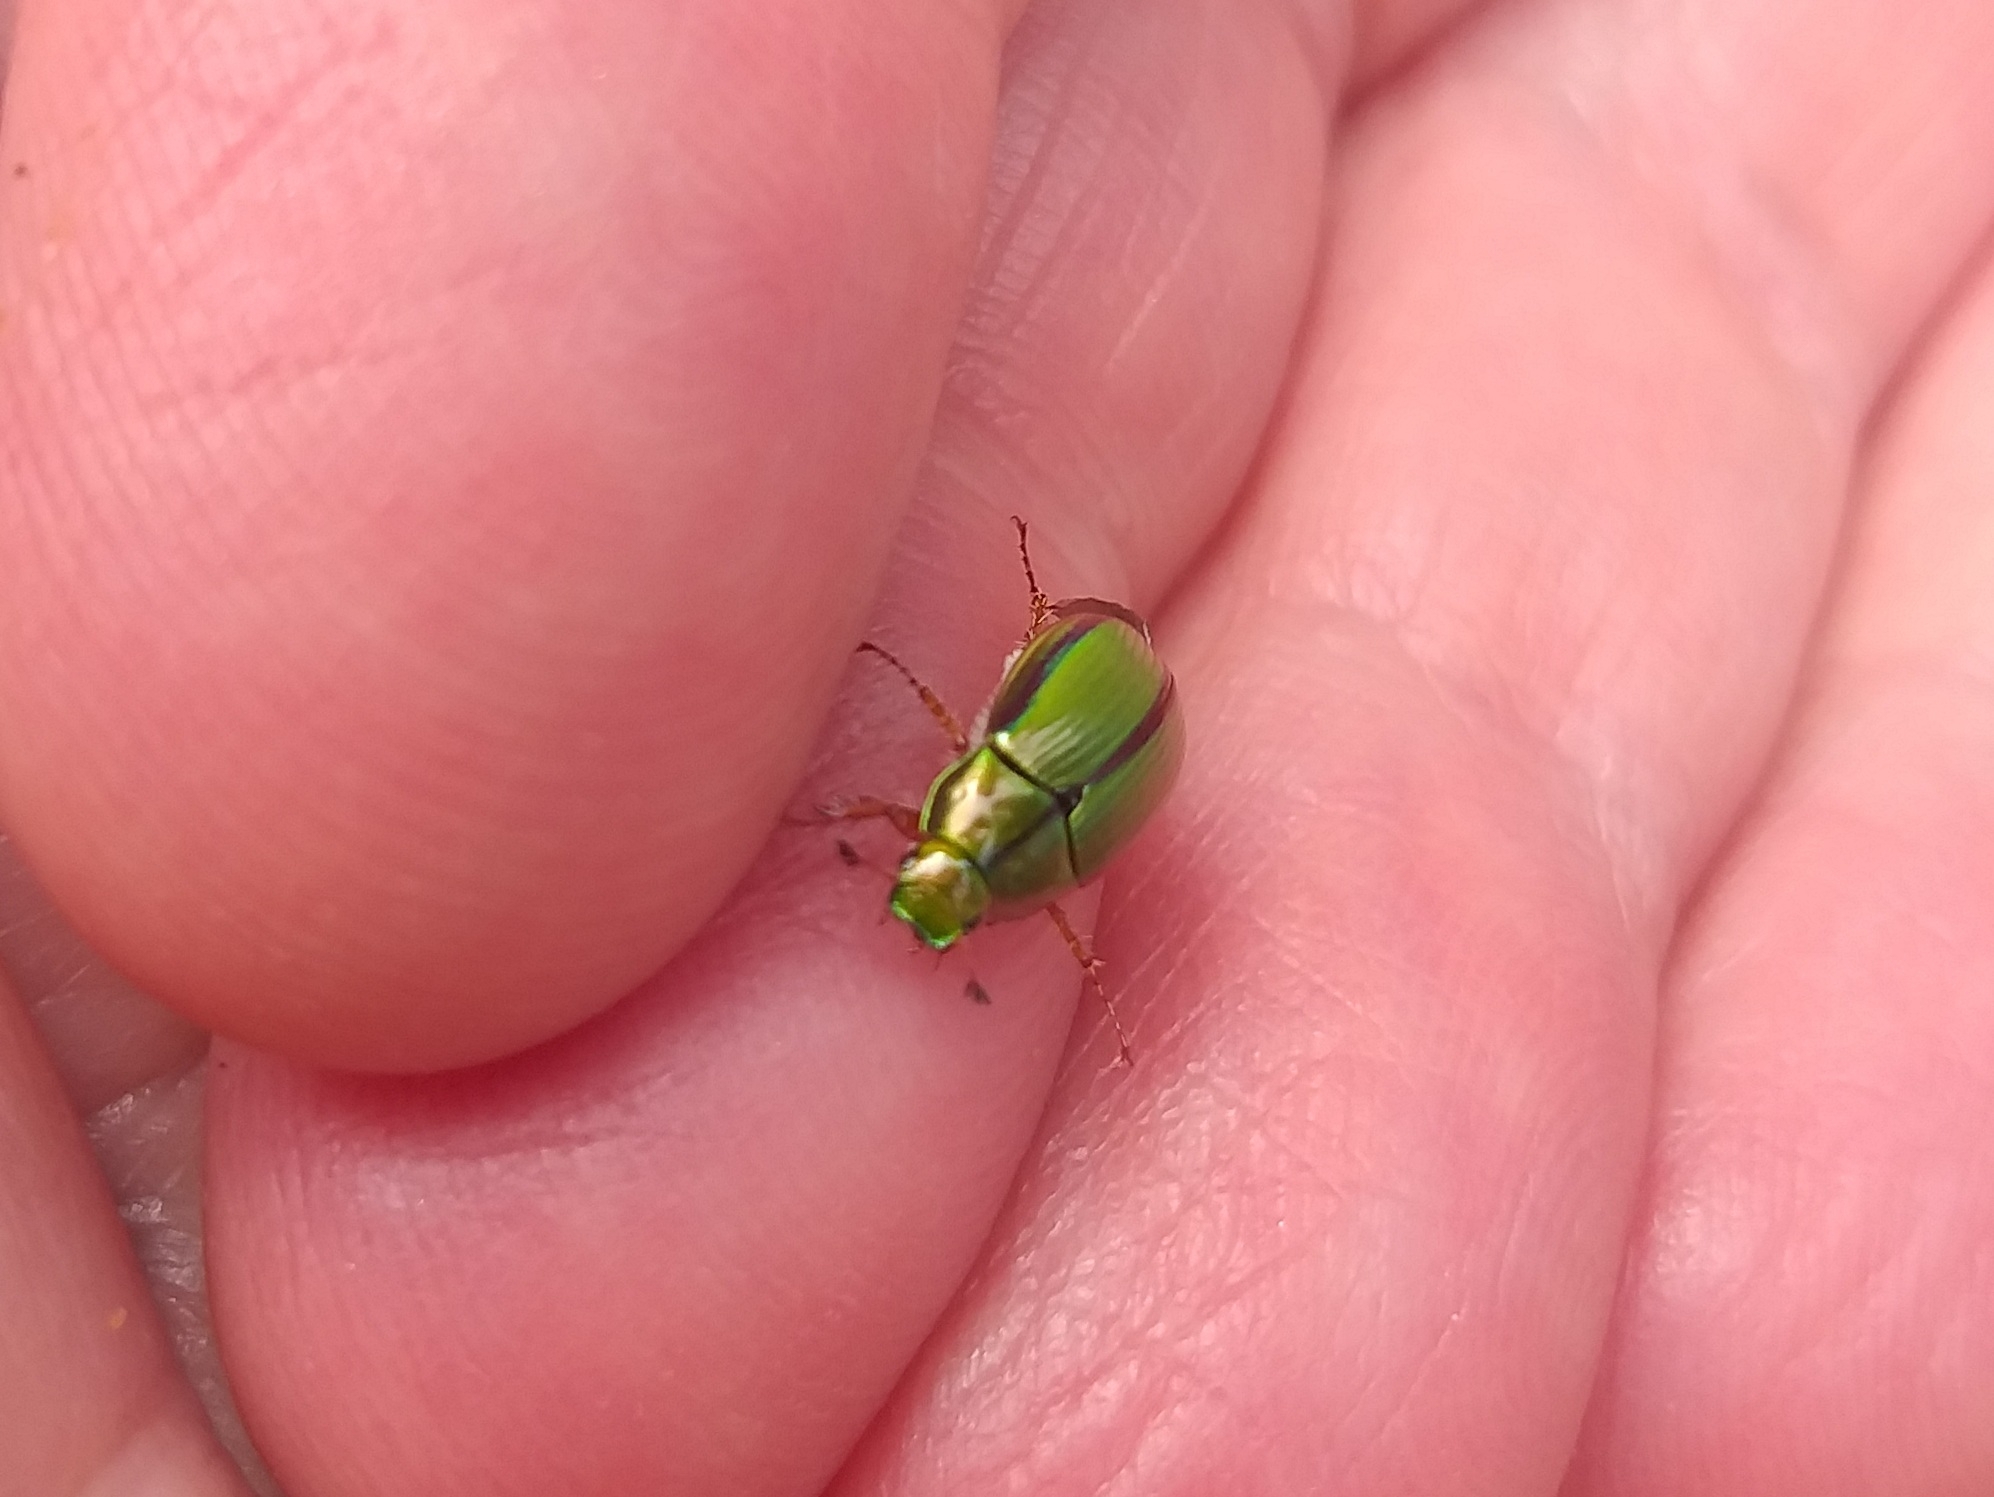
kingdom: Animalia
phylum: Arthropoda
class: Insecta
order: Coleoptera
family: Scarabaeidae
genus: Pyronota
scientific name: Pyronota festiva
